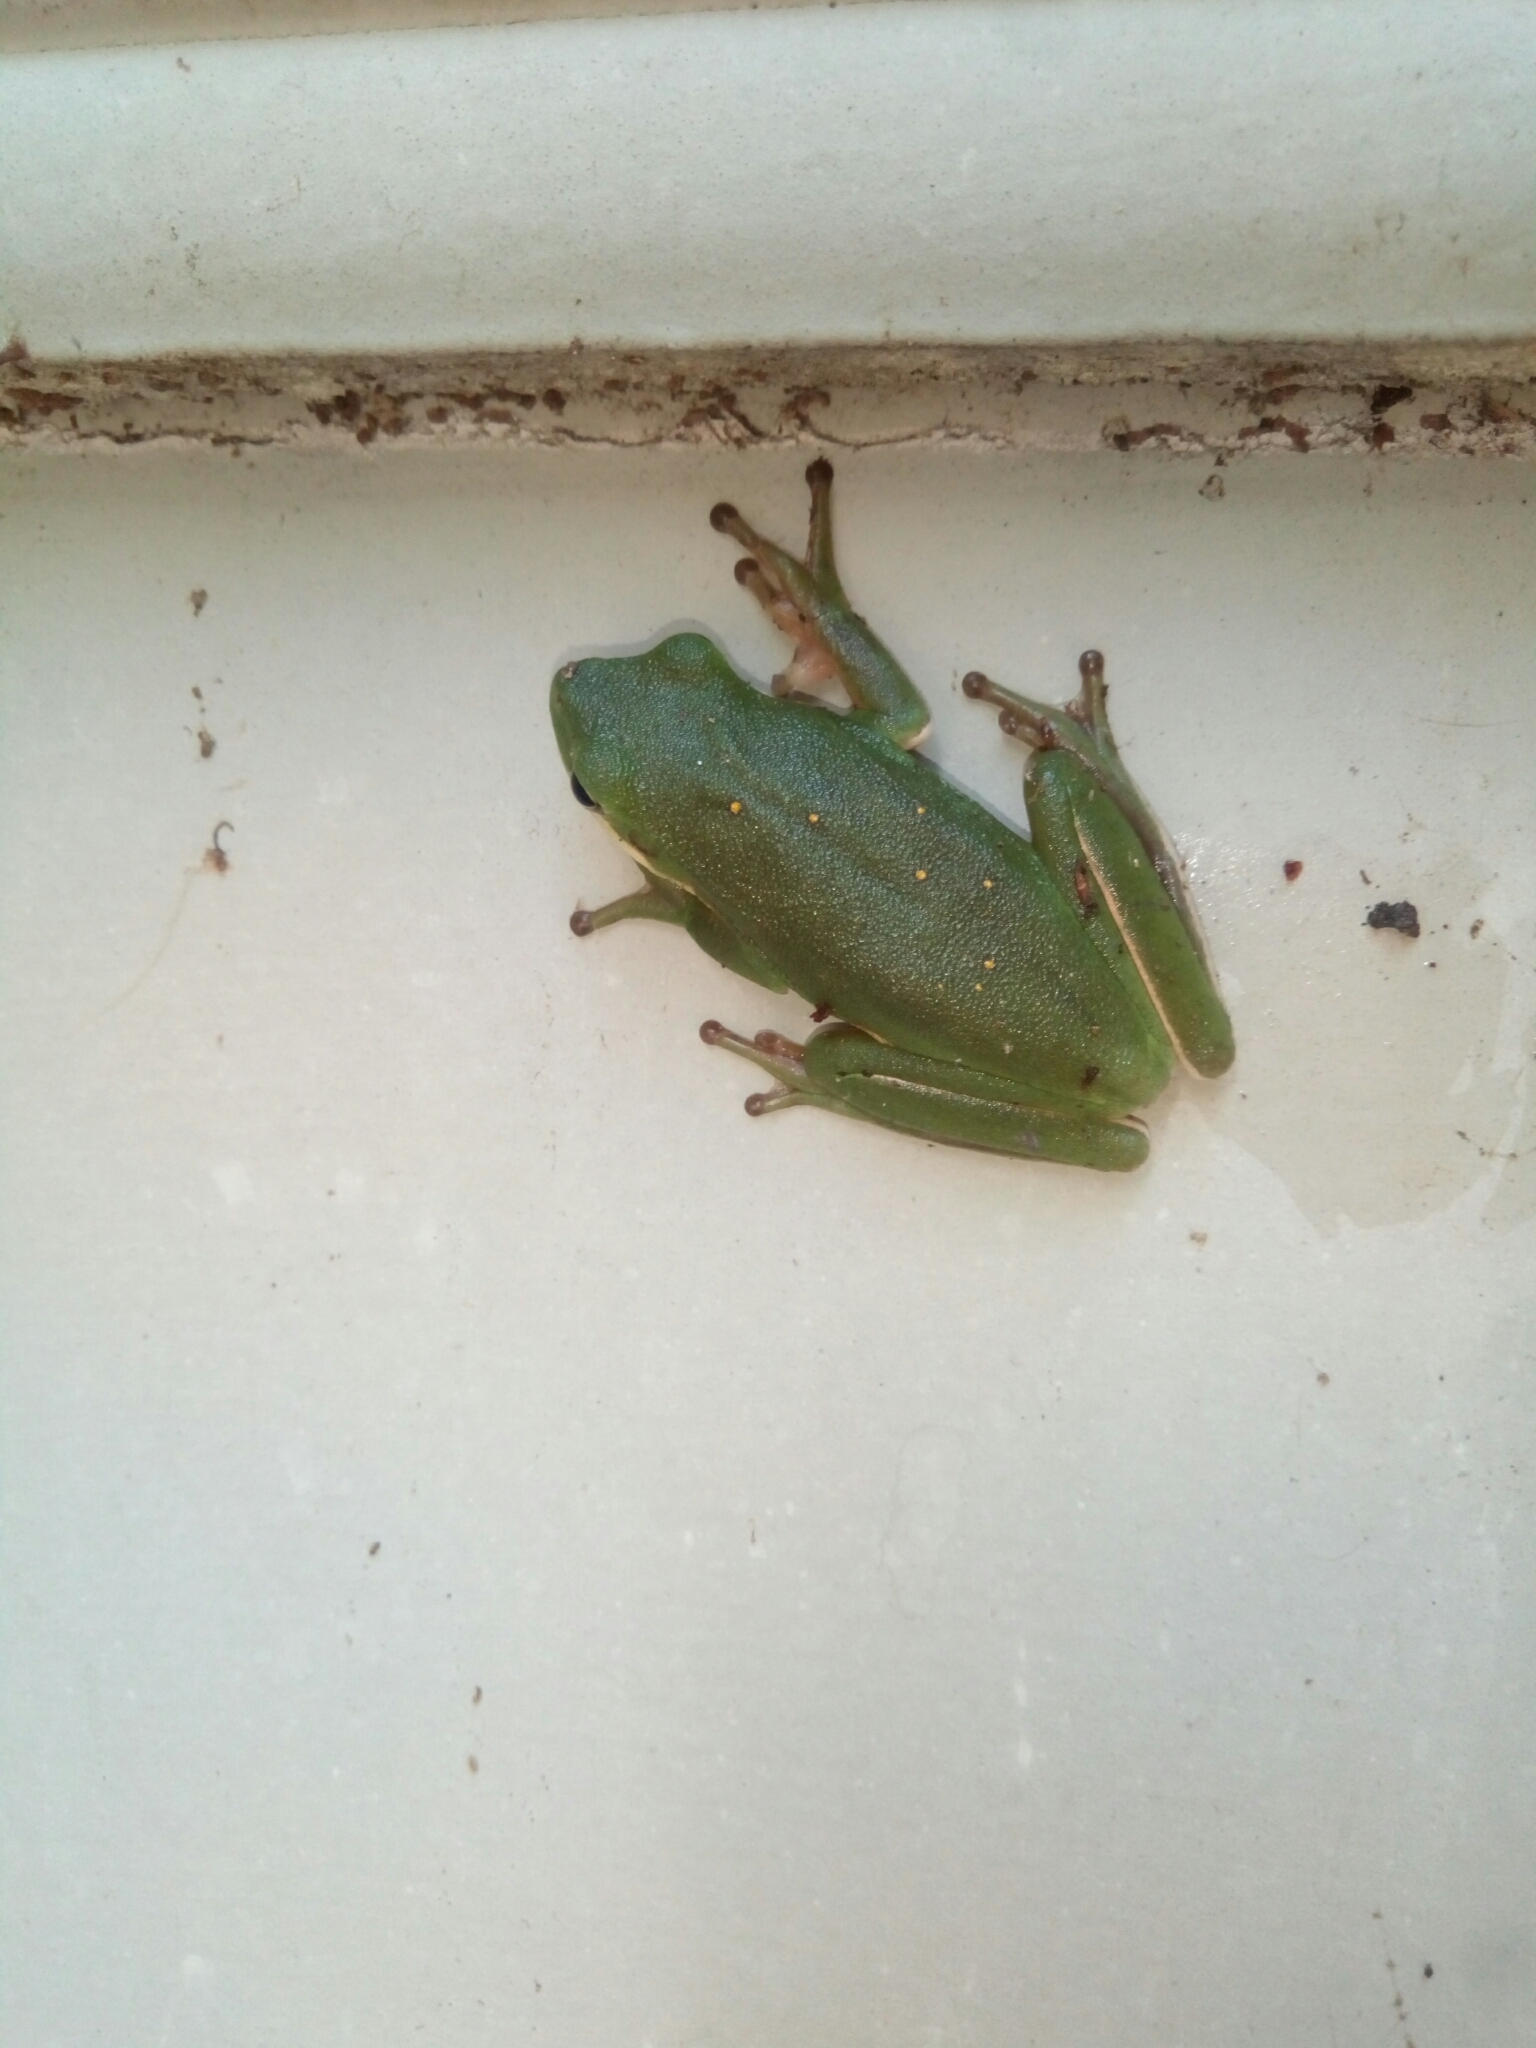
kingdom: Animalia
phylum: Chordata
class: Amphibia
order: Anura
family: Hylidae
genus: Dryophytes
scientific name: Dryophytes cinereus
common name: Green treefrog
